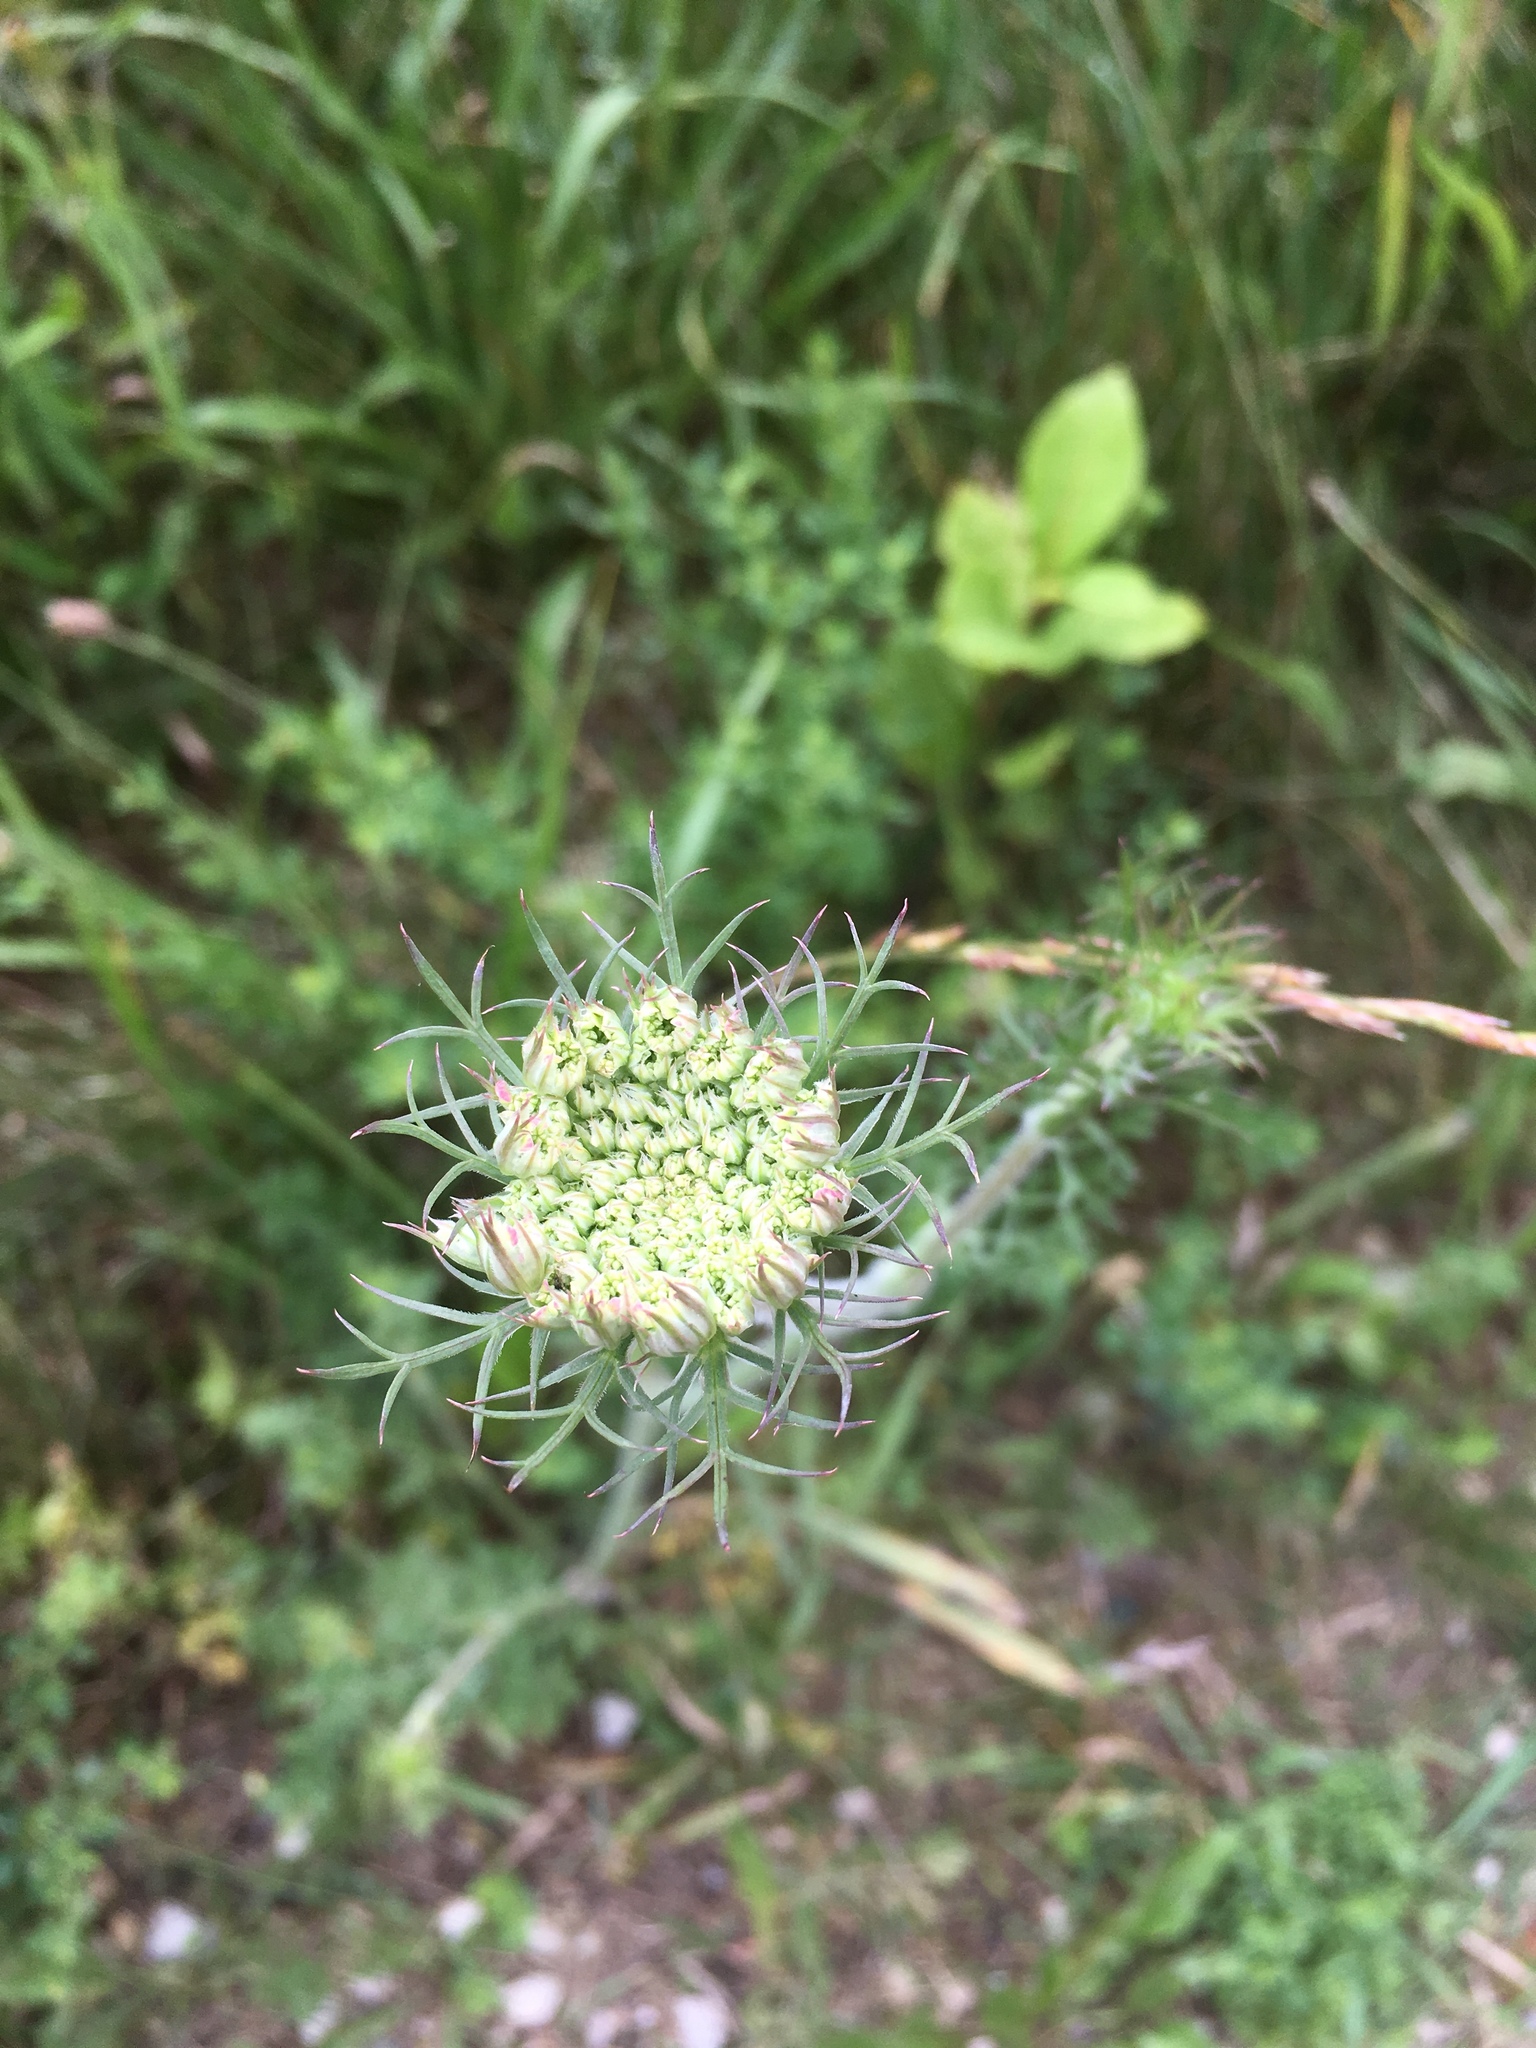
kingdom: Plantae
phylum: Tracheophyta
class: Magnoliopsida
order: Apiales
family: Apiaceae
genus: Daucus
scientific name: Daucus carota
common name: Wild carrot
